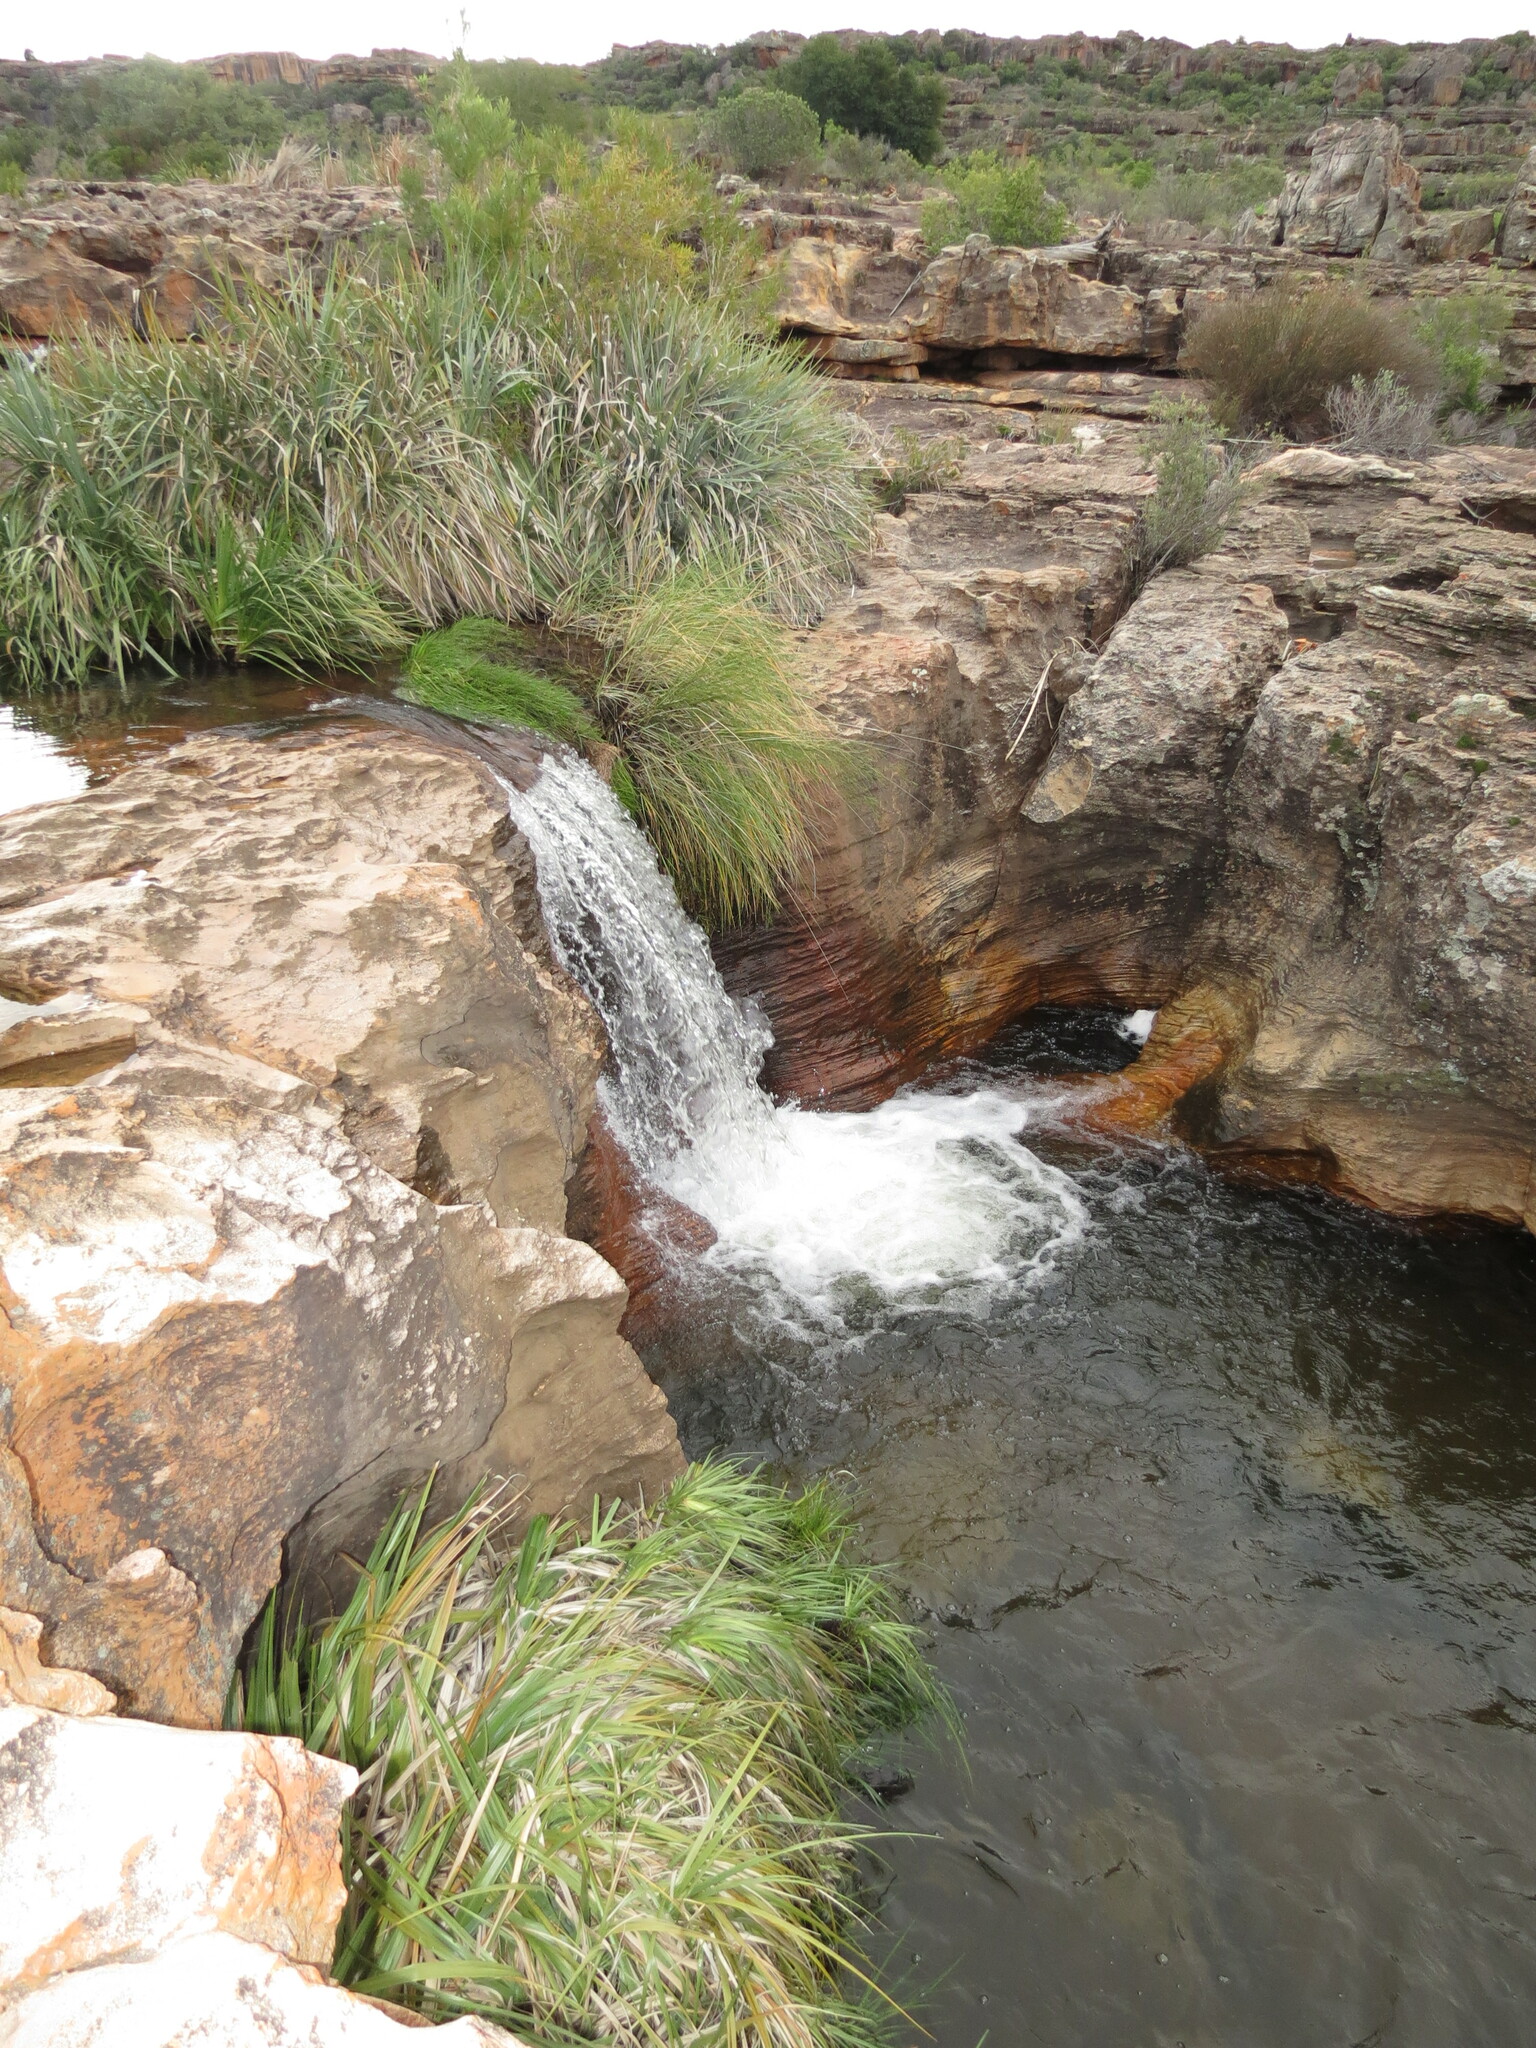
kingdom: Plantae
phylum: Tracheophyta
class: Liliopsida
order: Poales
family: Thurniaceae
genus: Prionium
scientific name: Prionium serratum
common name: Palmiet
